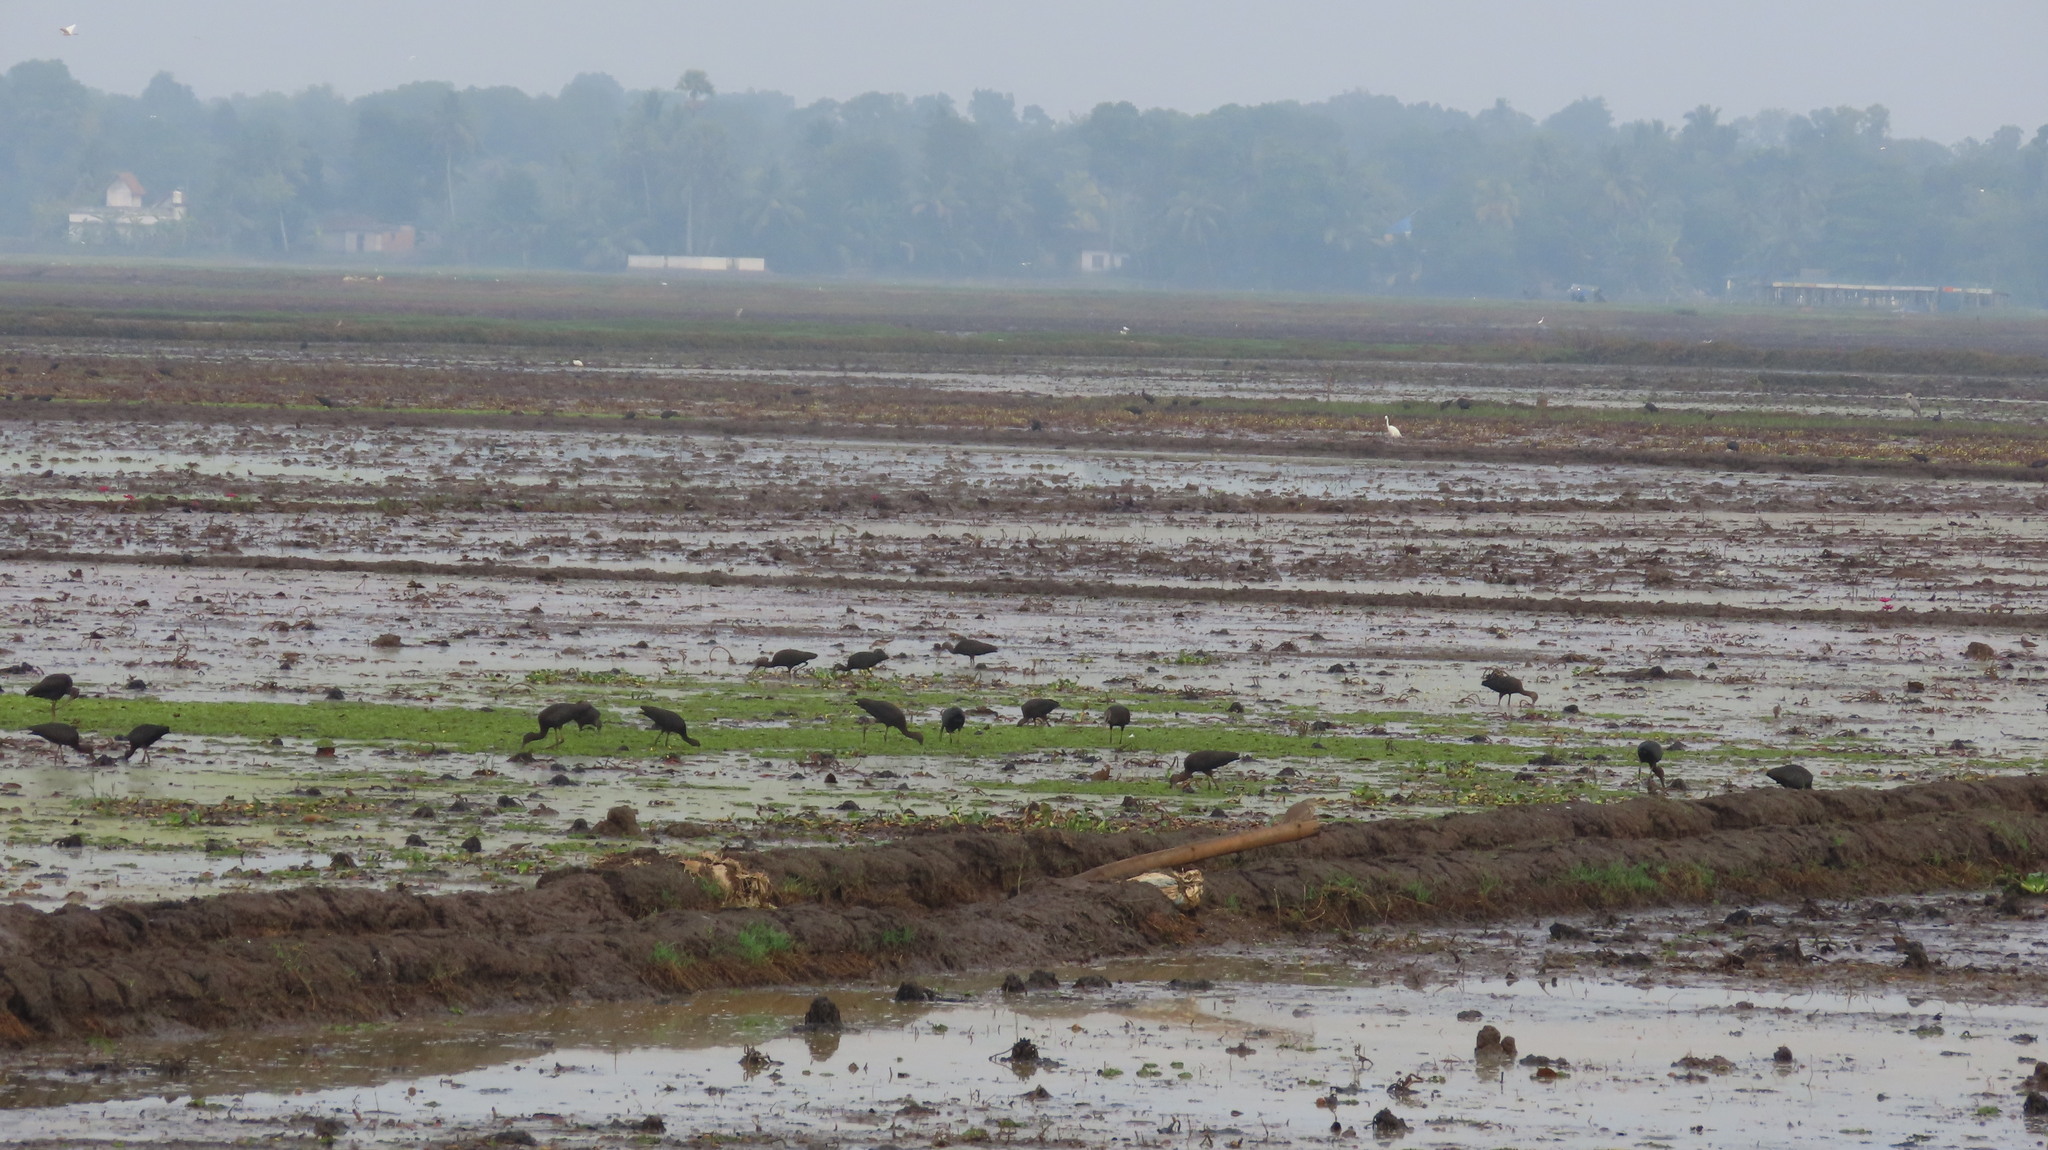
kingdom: Animalia
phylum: Chordata
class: Aves
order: Pelecaniformes
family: Threskiornithidae
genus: Plegadis
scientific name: Plegadis falcinellus
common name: Glossy ibis
